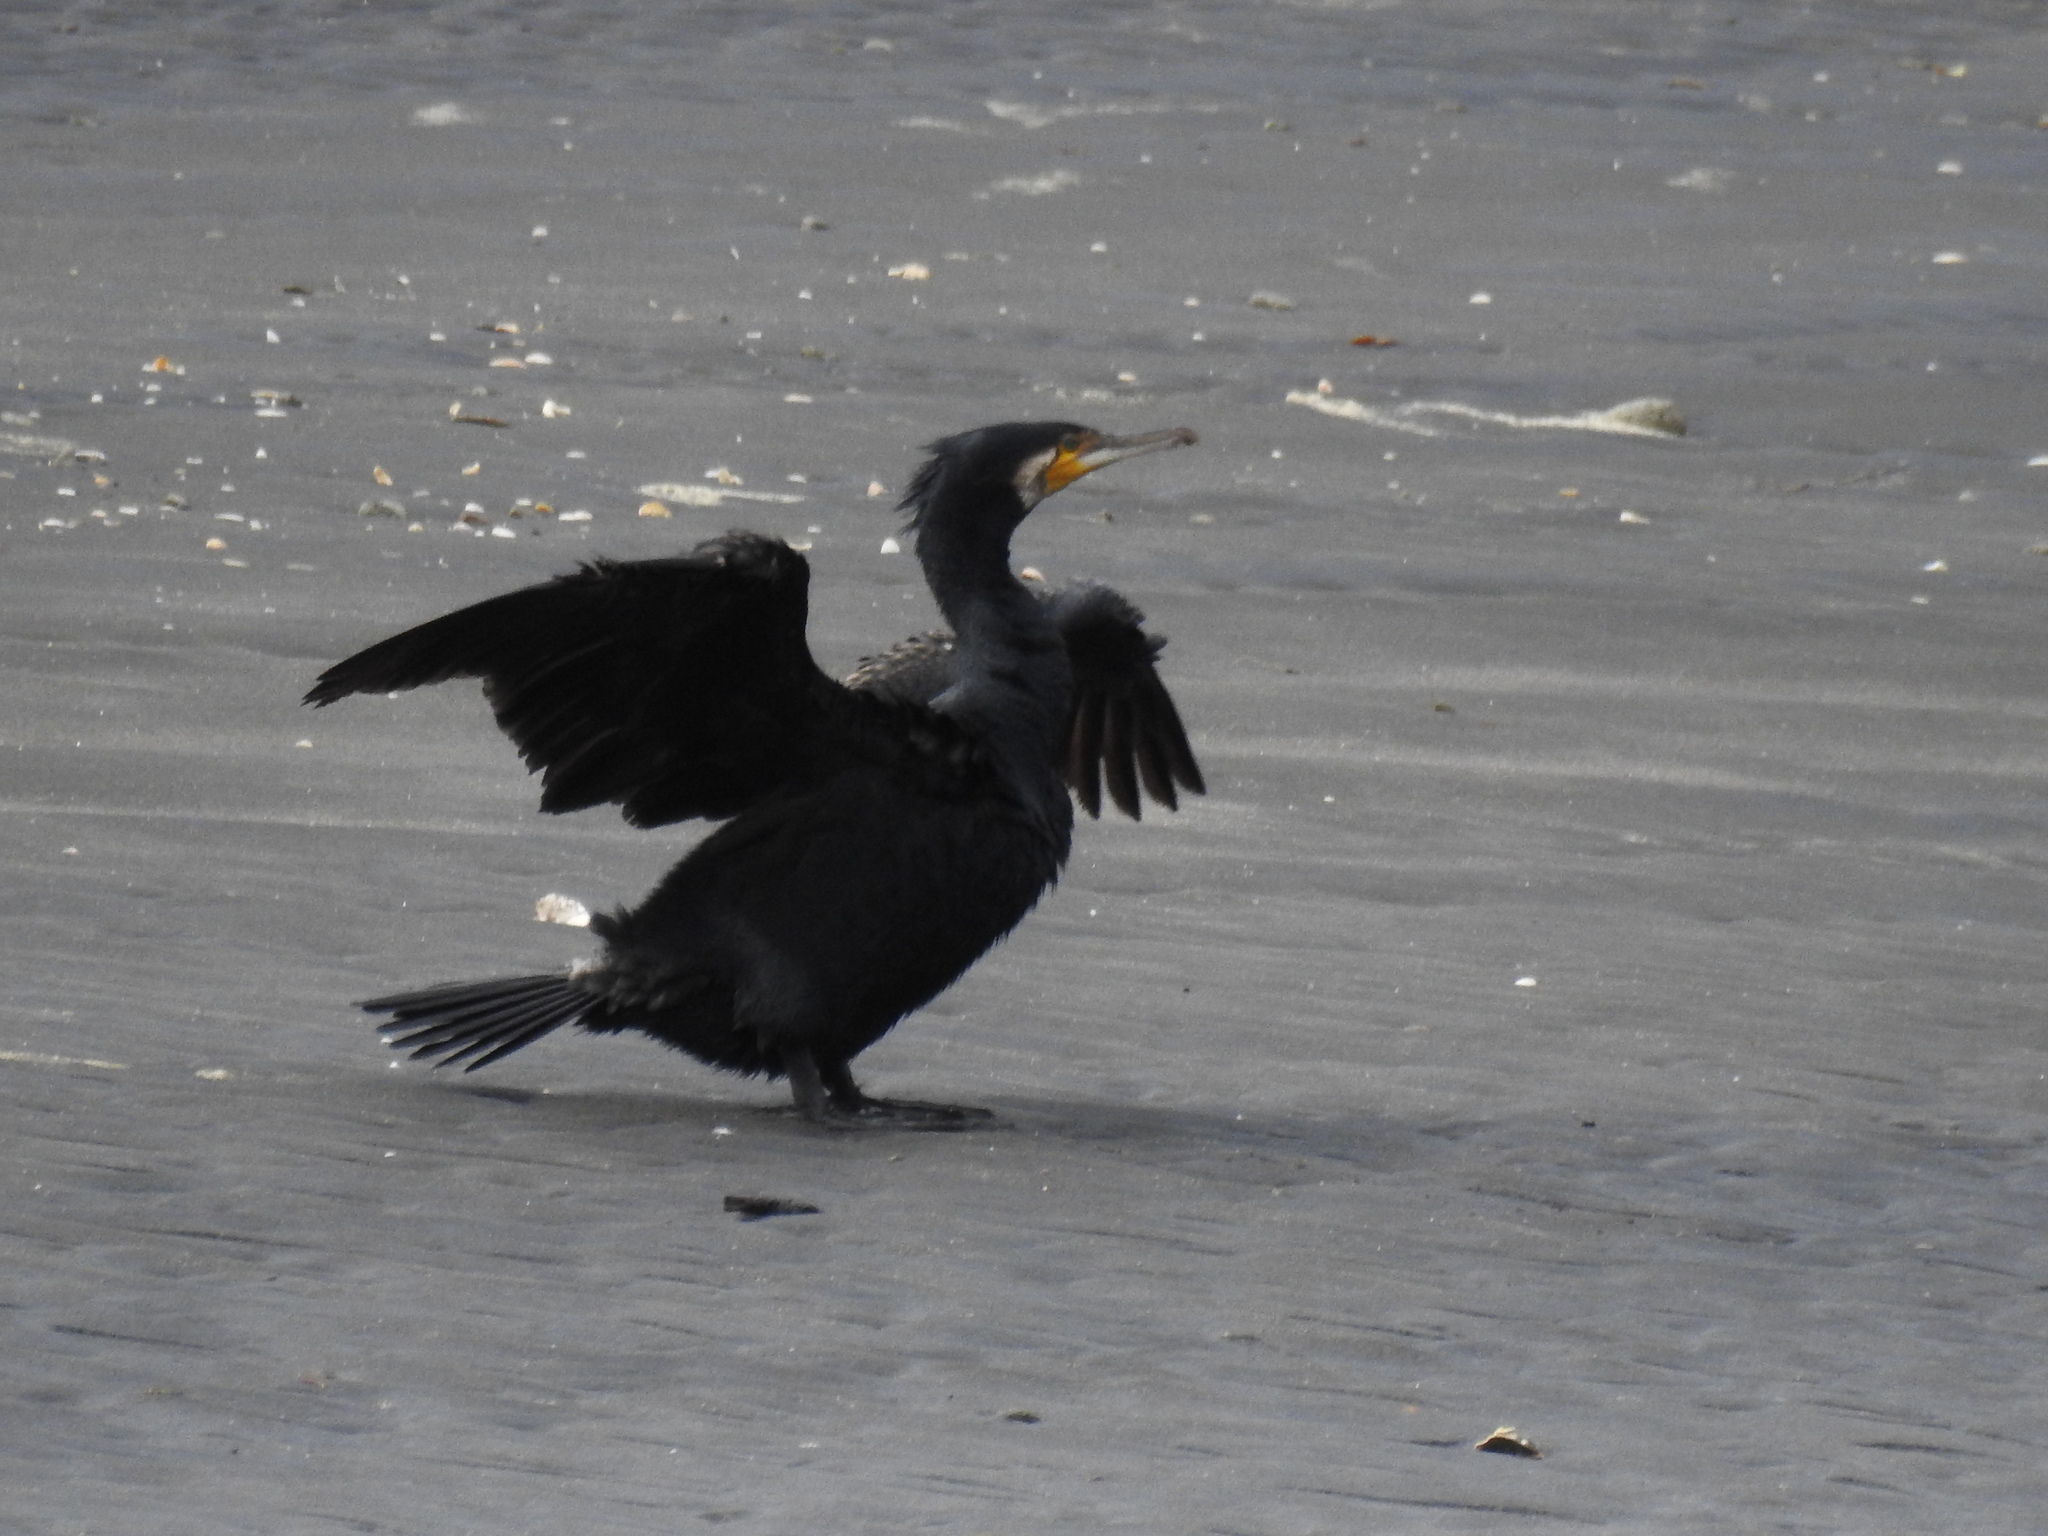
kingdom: Animalia
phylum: Chordata
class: Aves
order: Suliformes
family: Phalacrocoracidae
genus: Phalacrocorax
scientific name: Phalacrocorax carbo
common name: Great cormorant
